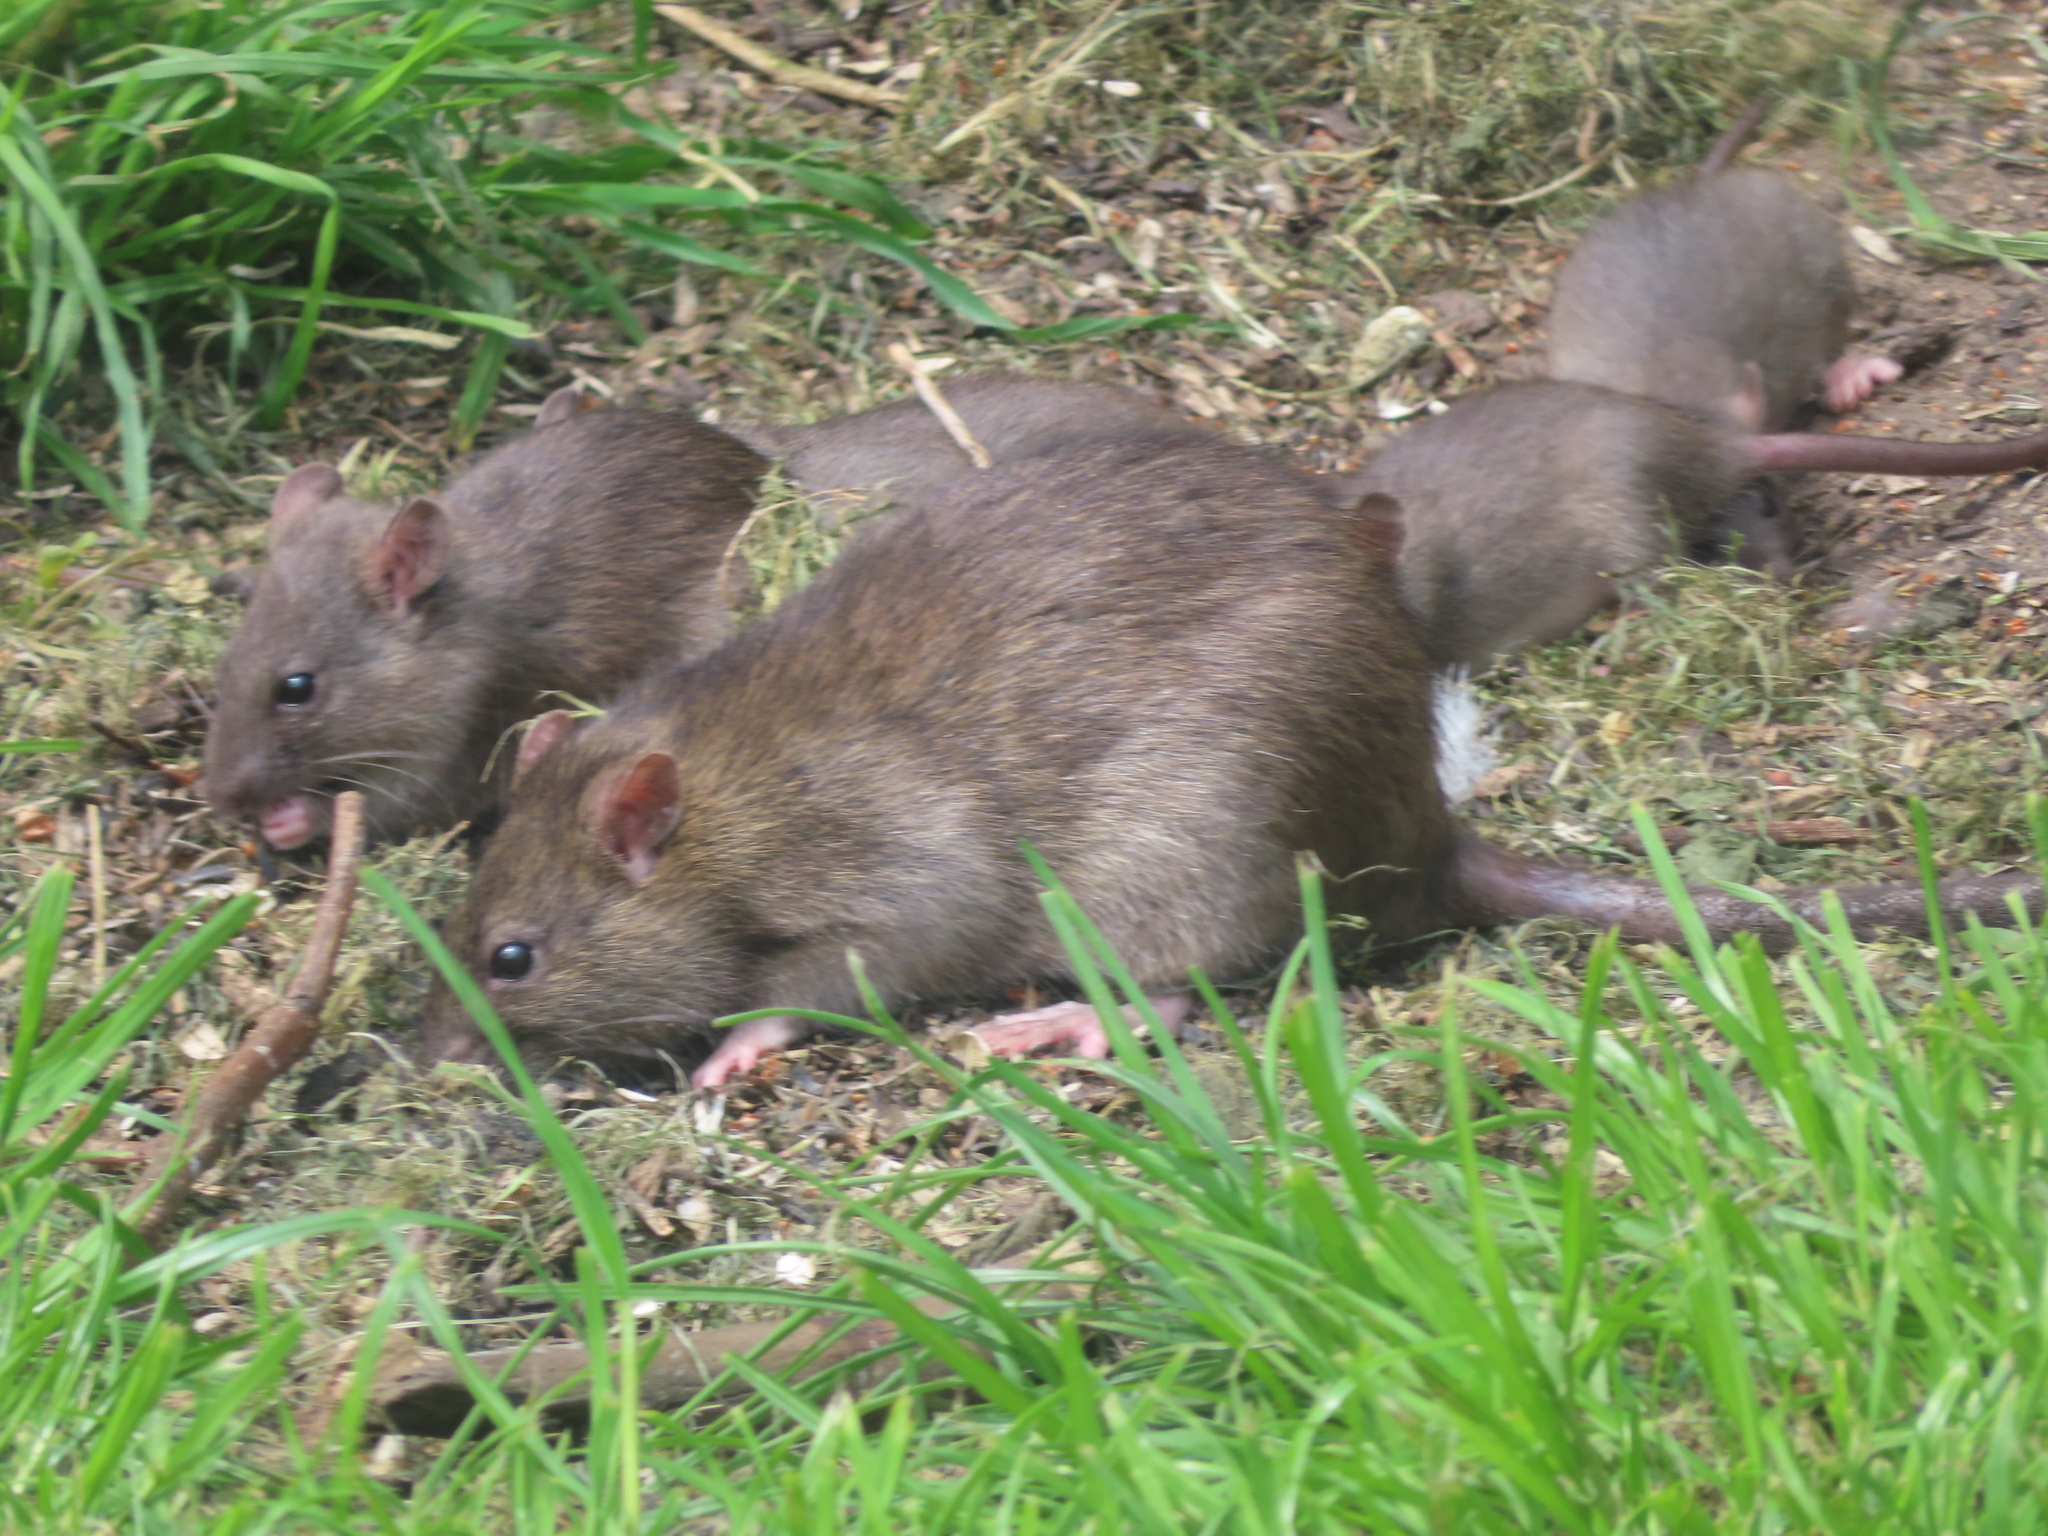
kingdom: Animalia
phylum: Chordata
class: Mammalia
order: Rodentia
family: Muridae
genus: Rattus
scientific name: Rattus norvegicus
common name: Brown rat
